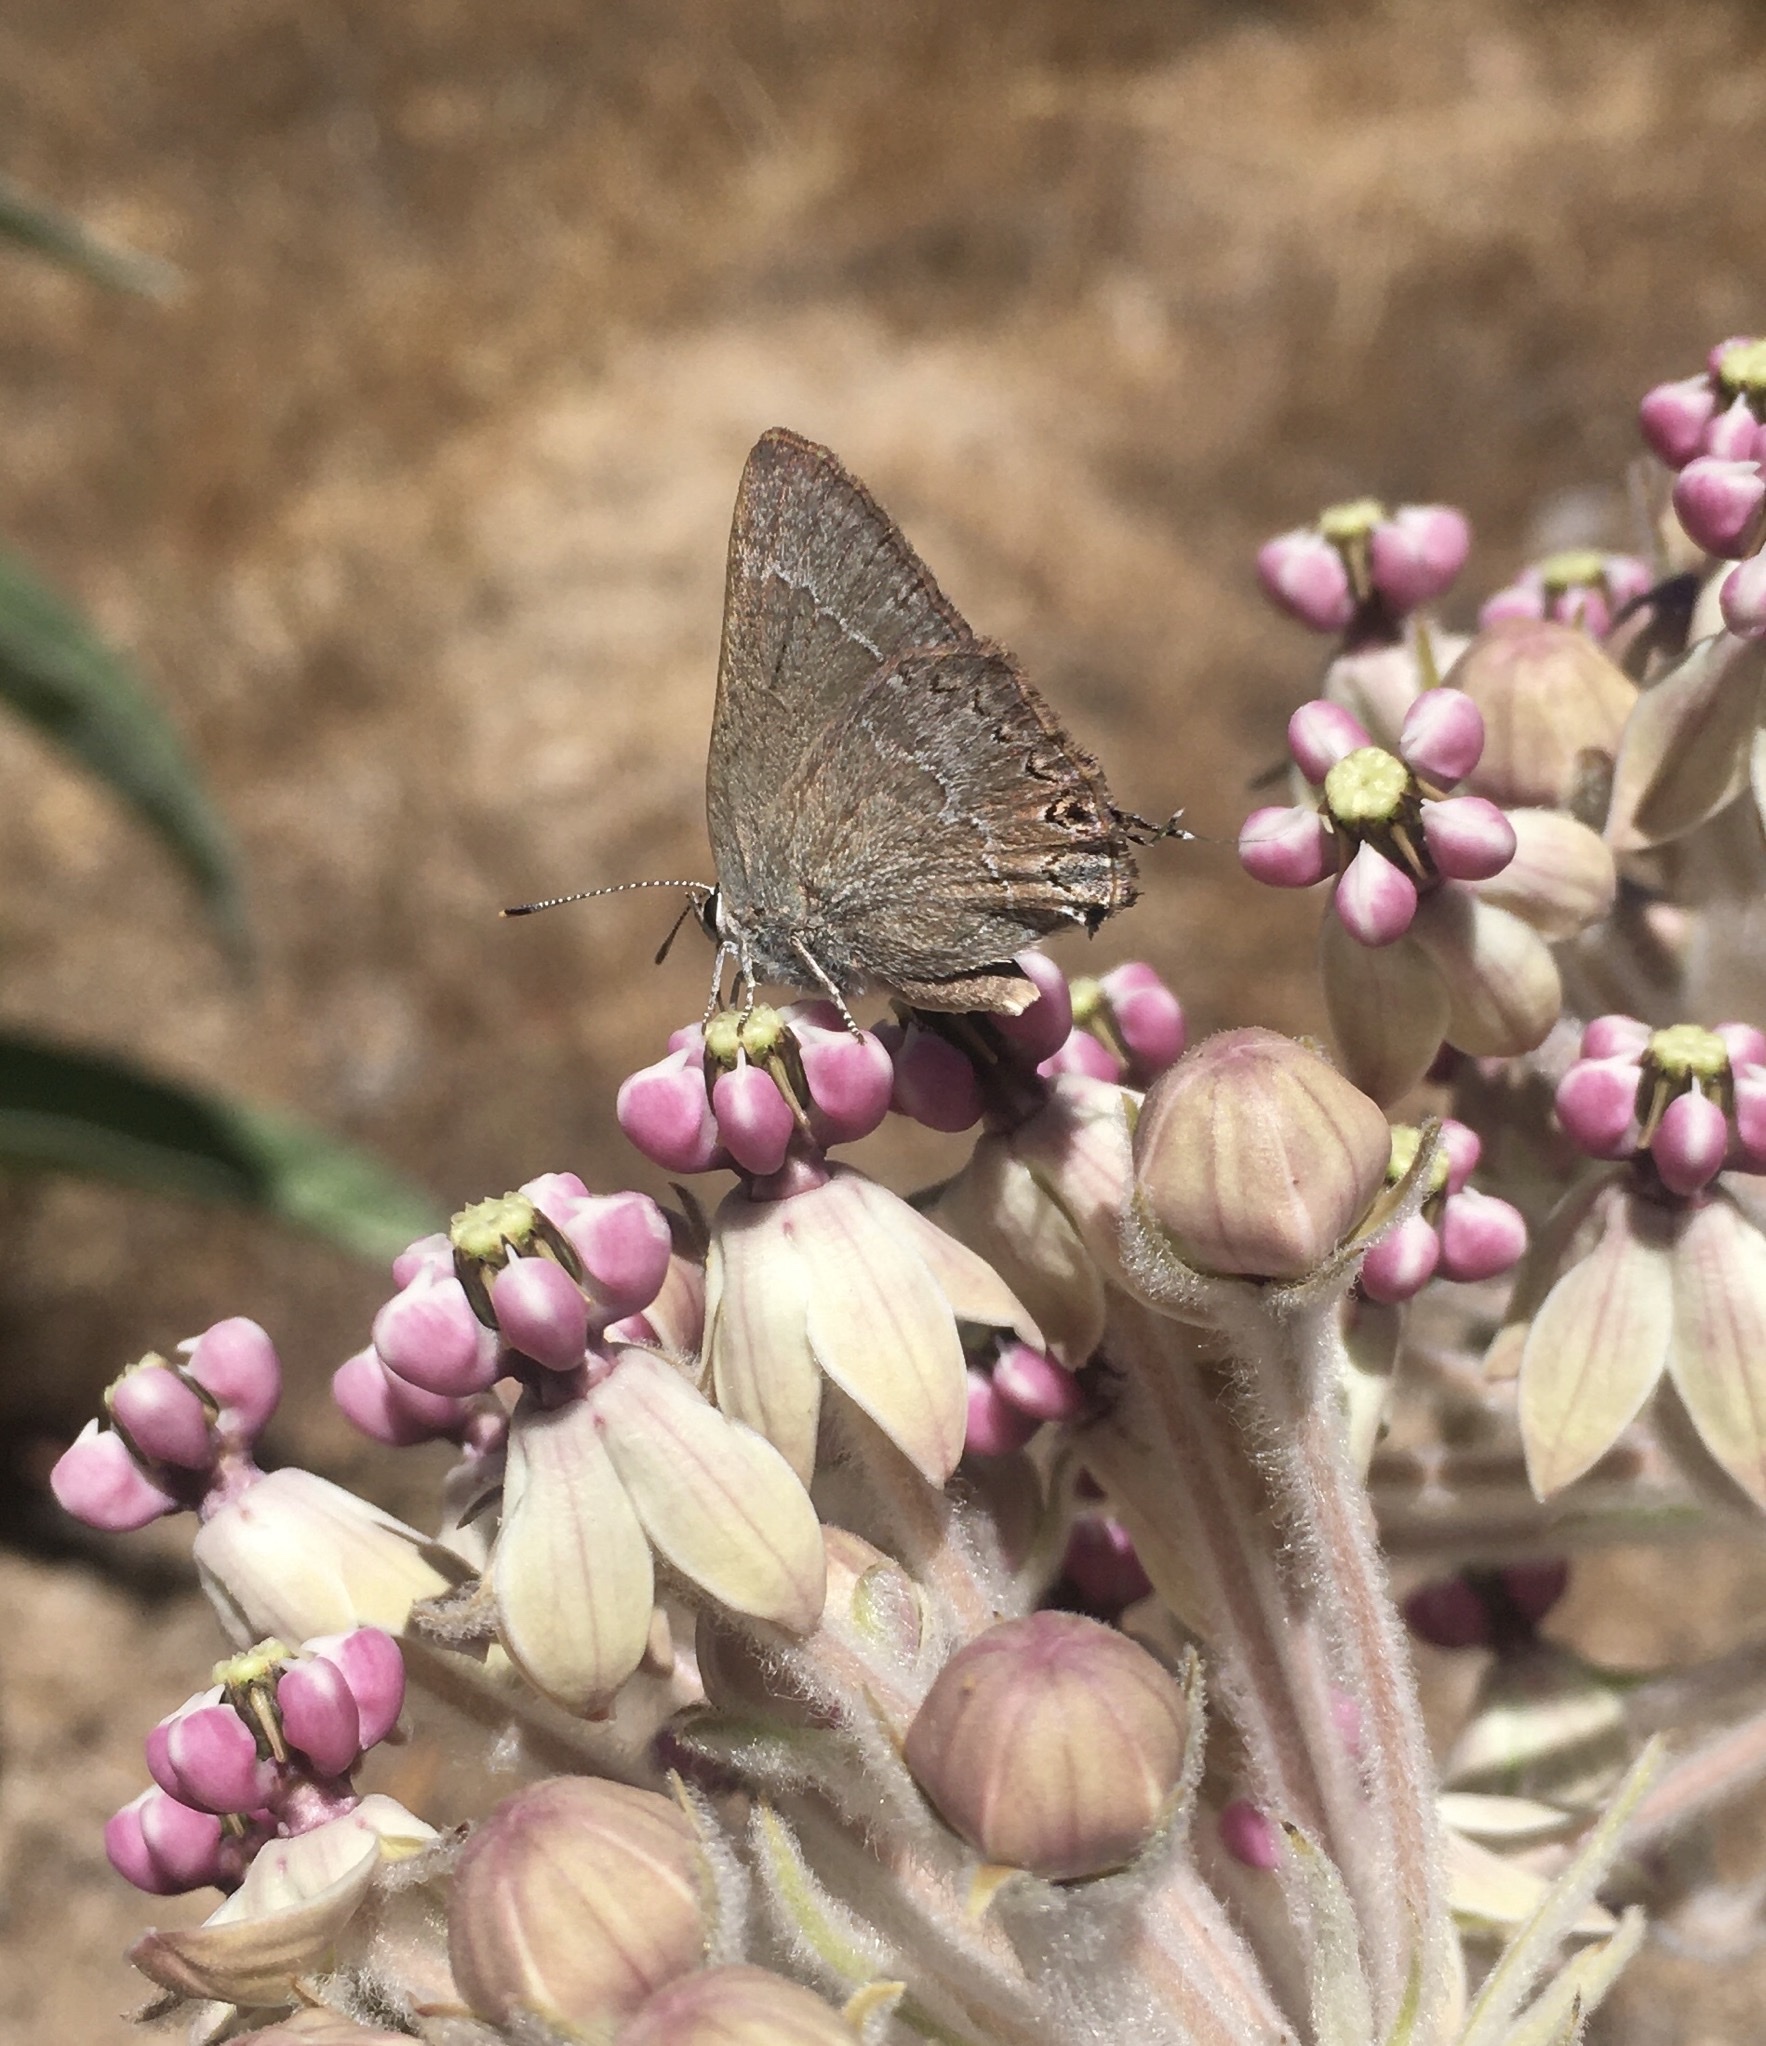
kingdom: Animalia
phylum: Arthropoda
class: Insecta
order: Lepidoptera
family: Lycaenidae
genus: Thecla
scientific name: Thecla tetra
